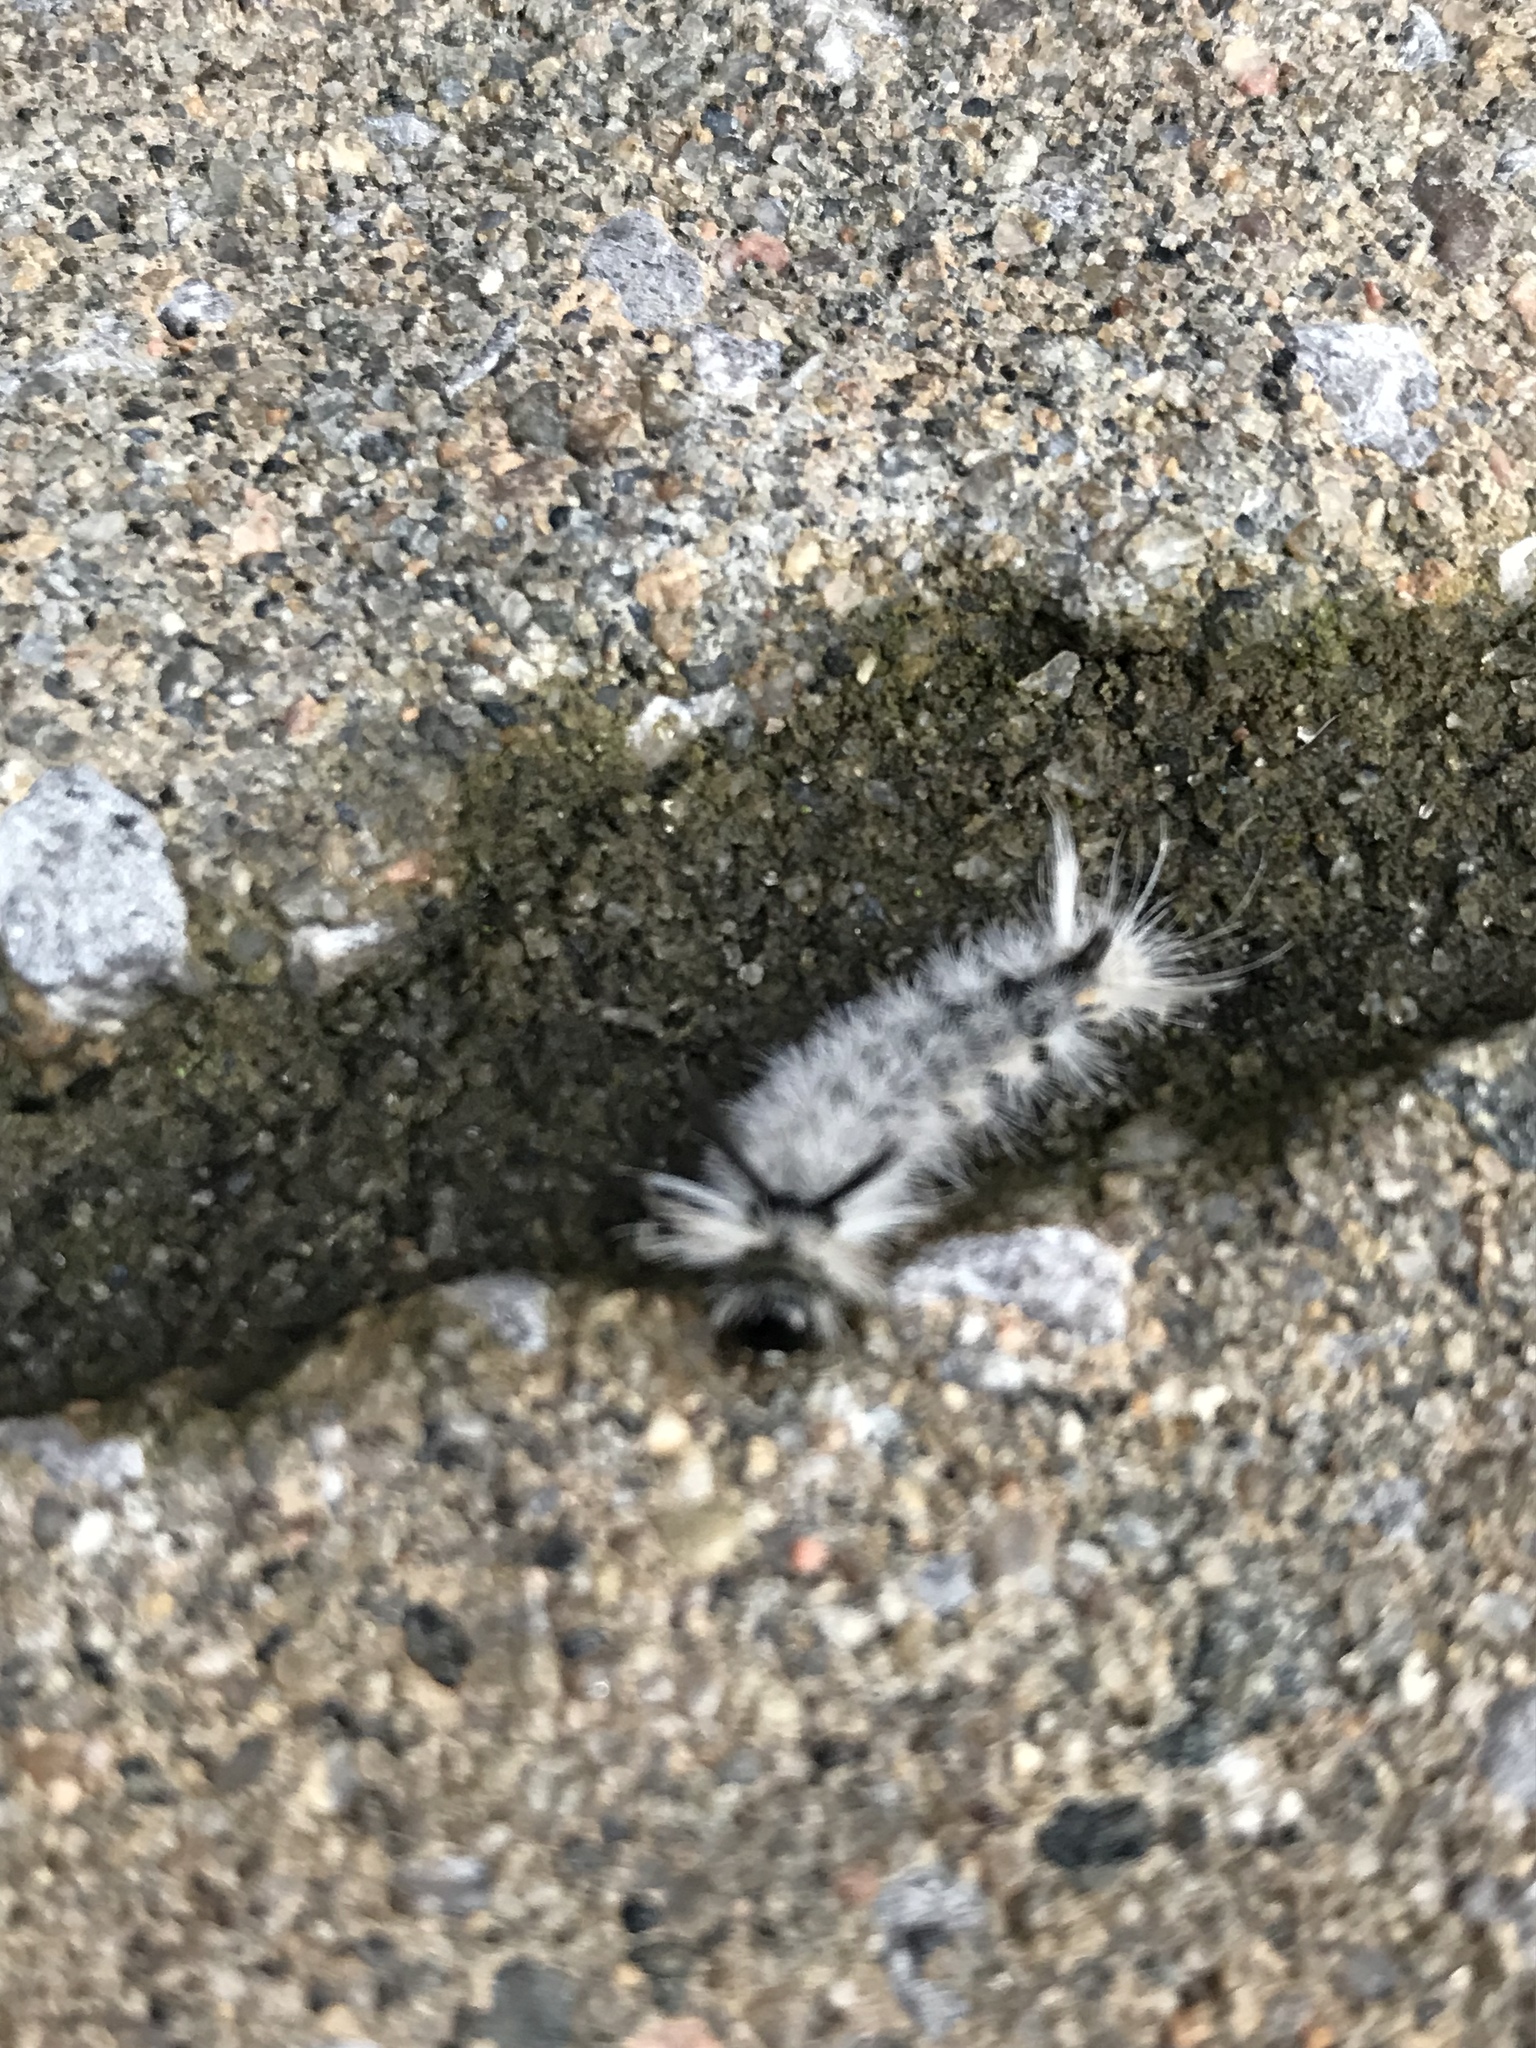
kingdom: Animalia
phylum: Arthropoda
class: Insecta
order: Lepidoptera
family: Erebidae
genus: Halysidota
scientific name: Halysidota tessellaris
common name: Banded tussock moth
